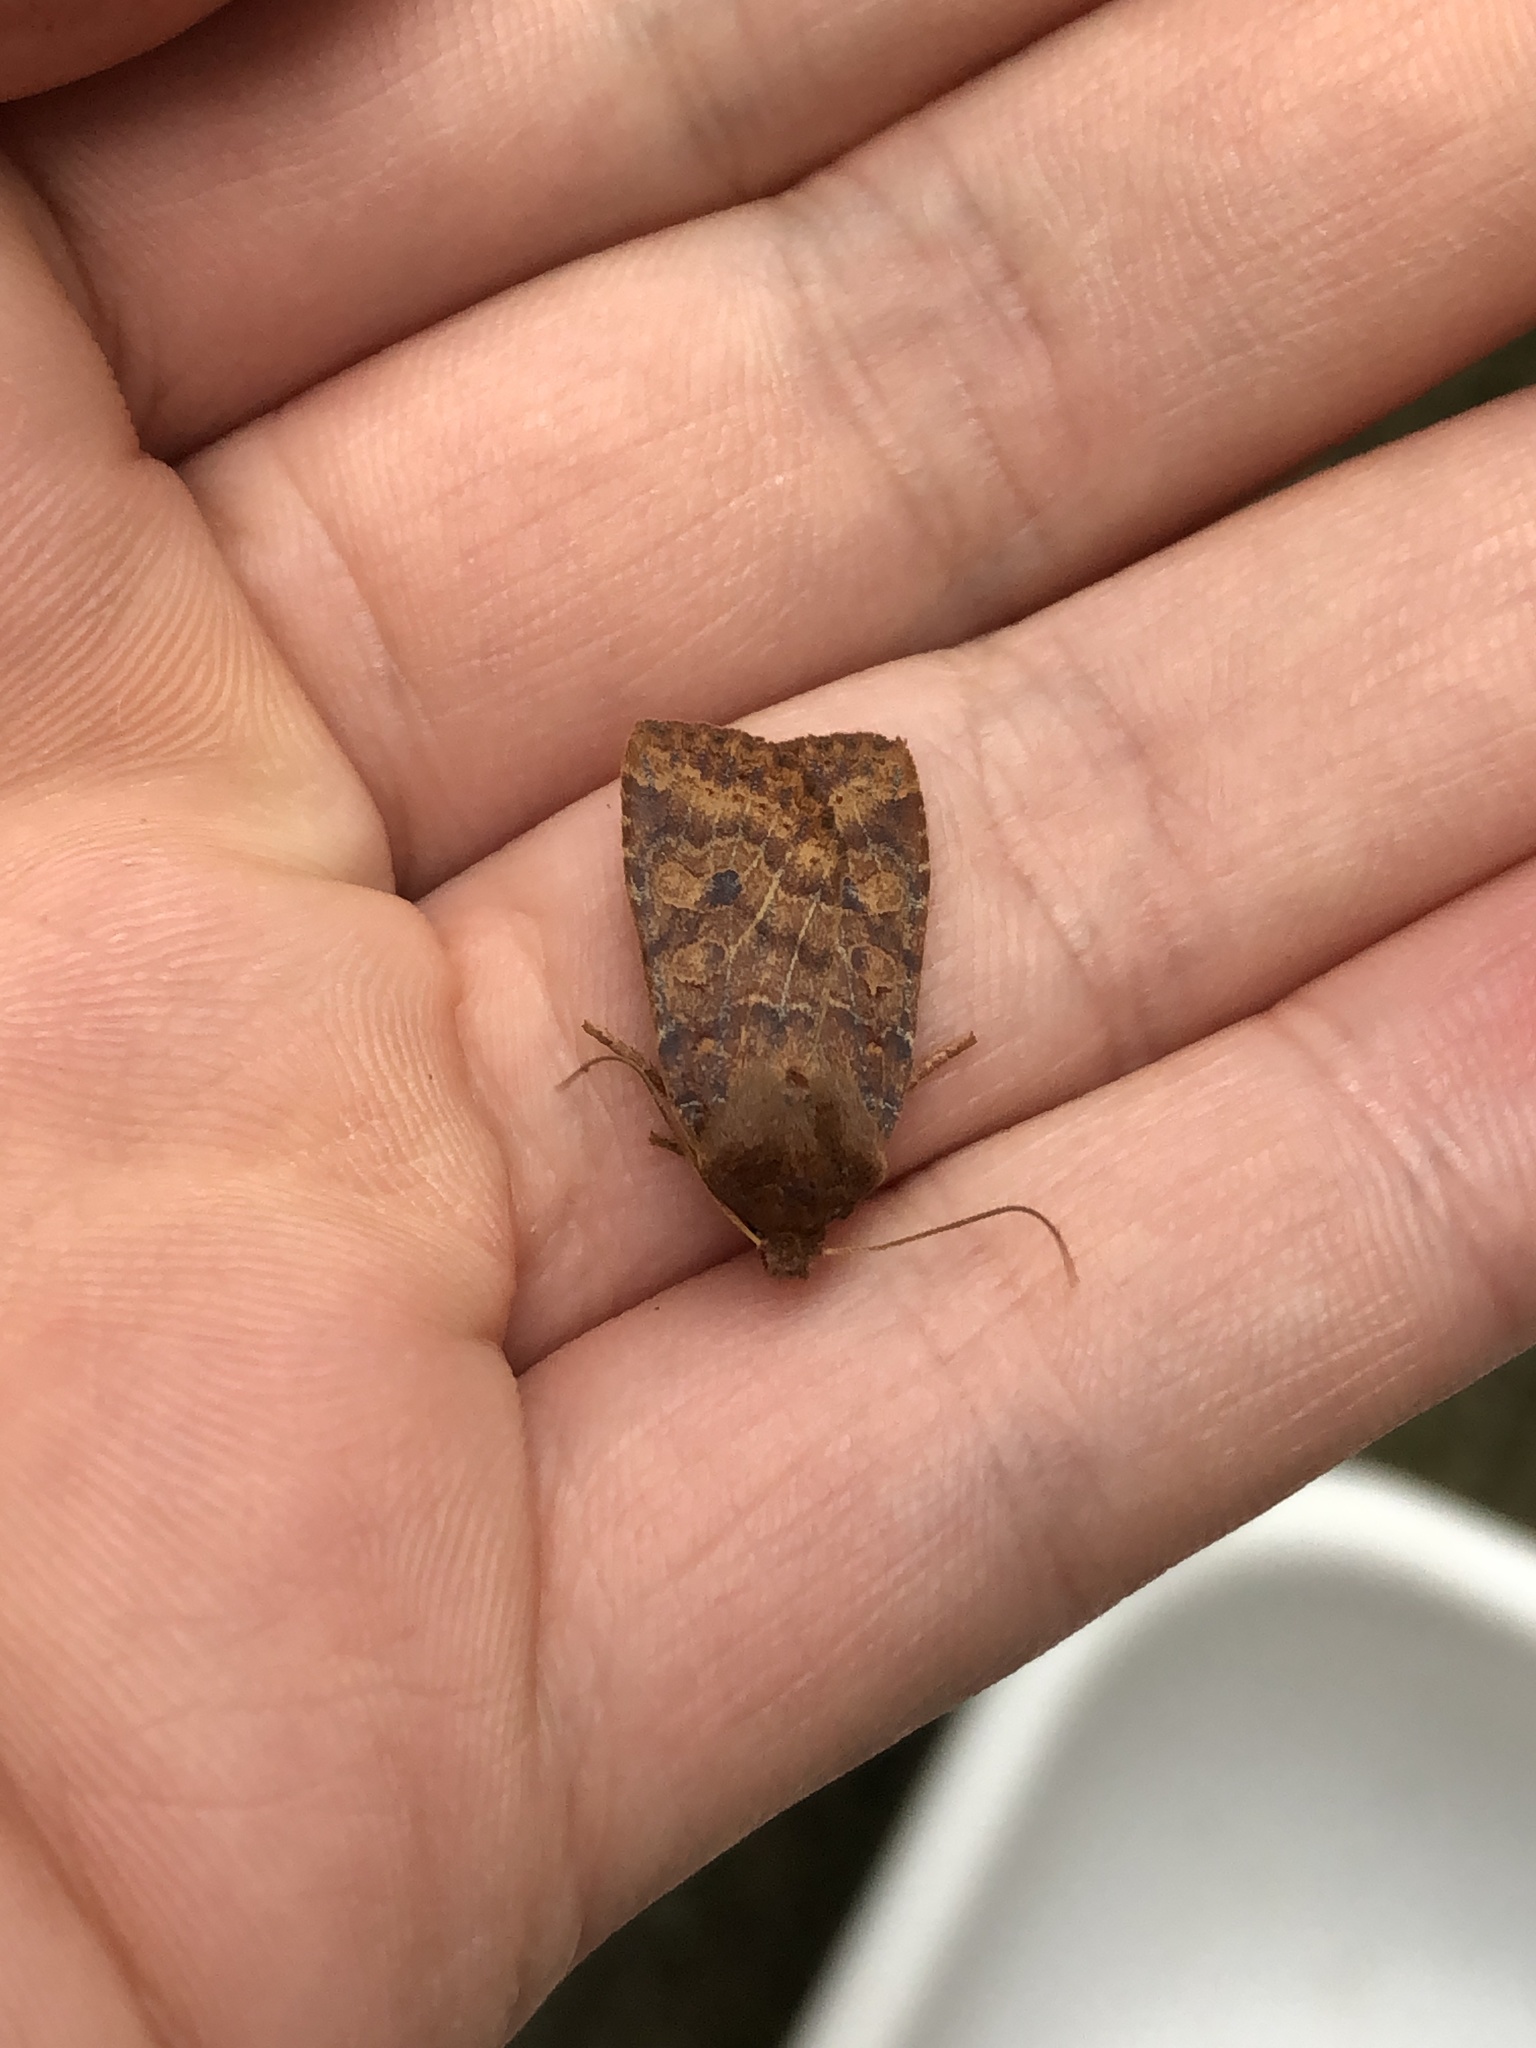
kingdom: Animalia
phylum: Arthropoda
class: Insecta
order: Lepidoptera
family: Noctuidae
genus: Conistra
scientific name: Conistra vaccinii
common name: Chestnut
